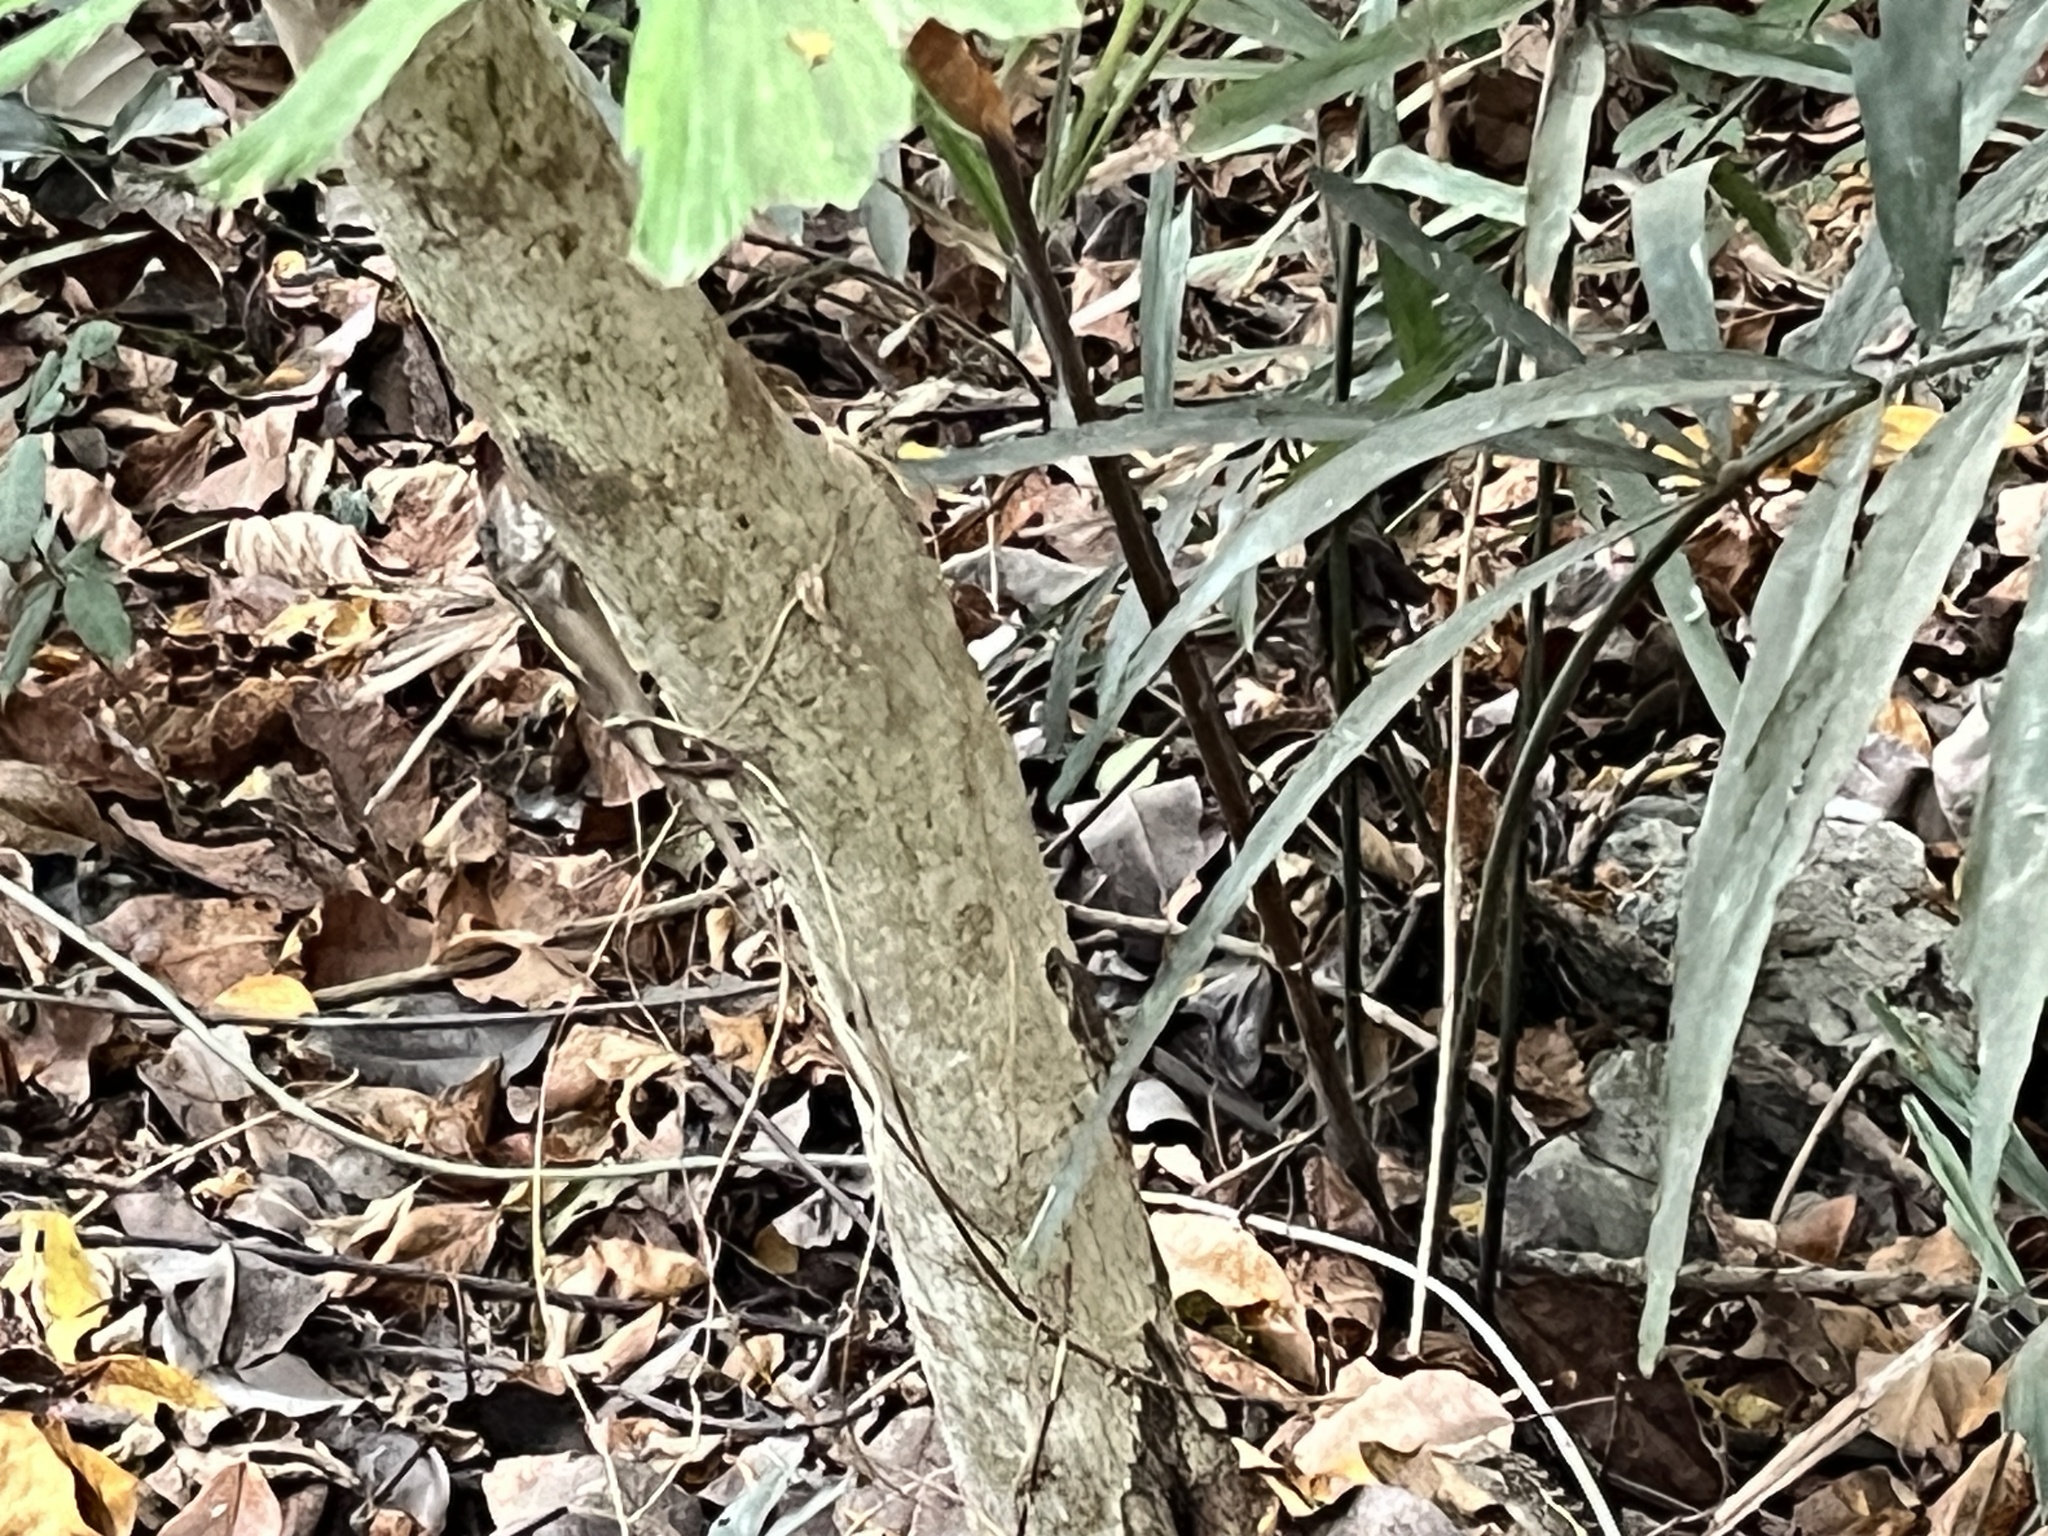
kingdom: Animalia
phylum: Chordata
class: Squamata
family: Agamidae
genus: Diploderma
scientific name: Diploderma swinhonis
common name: Taiwan japalure
